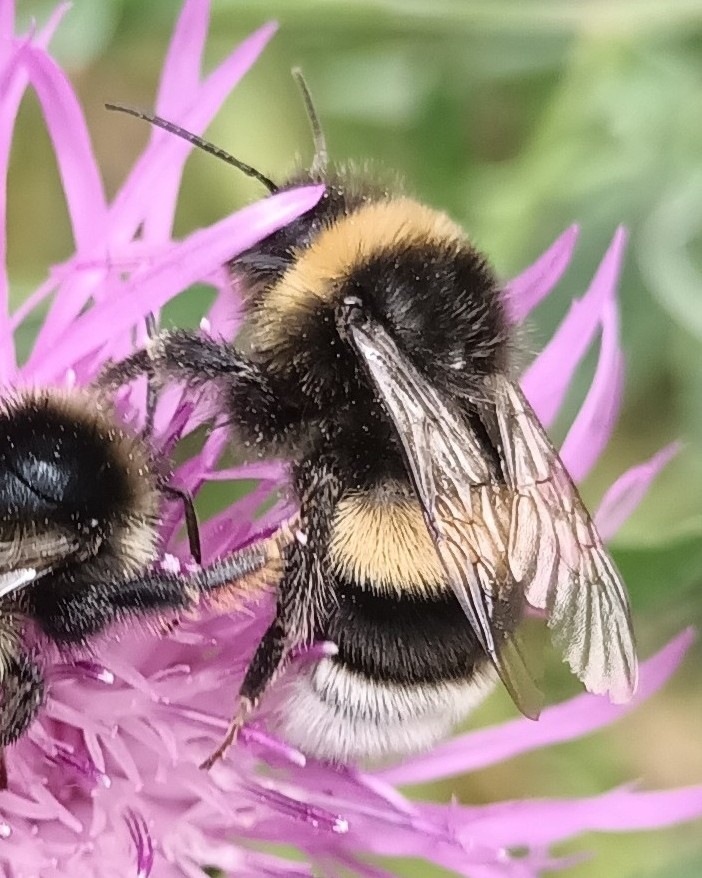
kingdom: Animalia
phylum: Arthropoda
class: Insecta
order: Hymenoptera
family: Apidae
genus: Bombus
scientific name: Bombus terrestris
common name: Buff-tailed bumblebee
